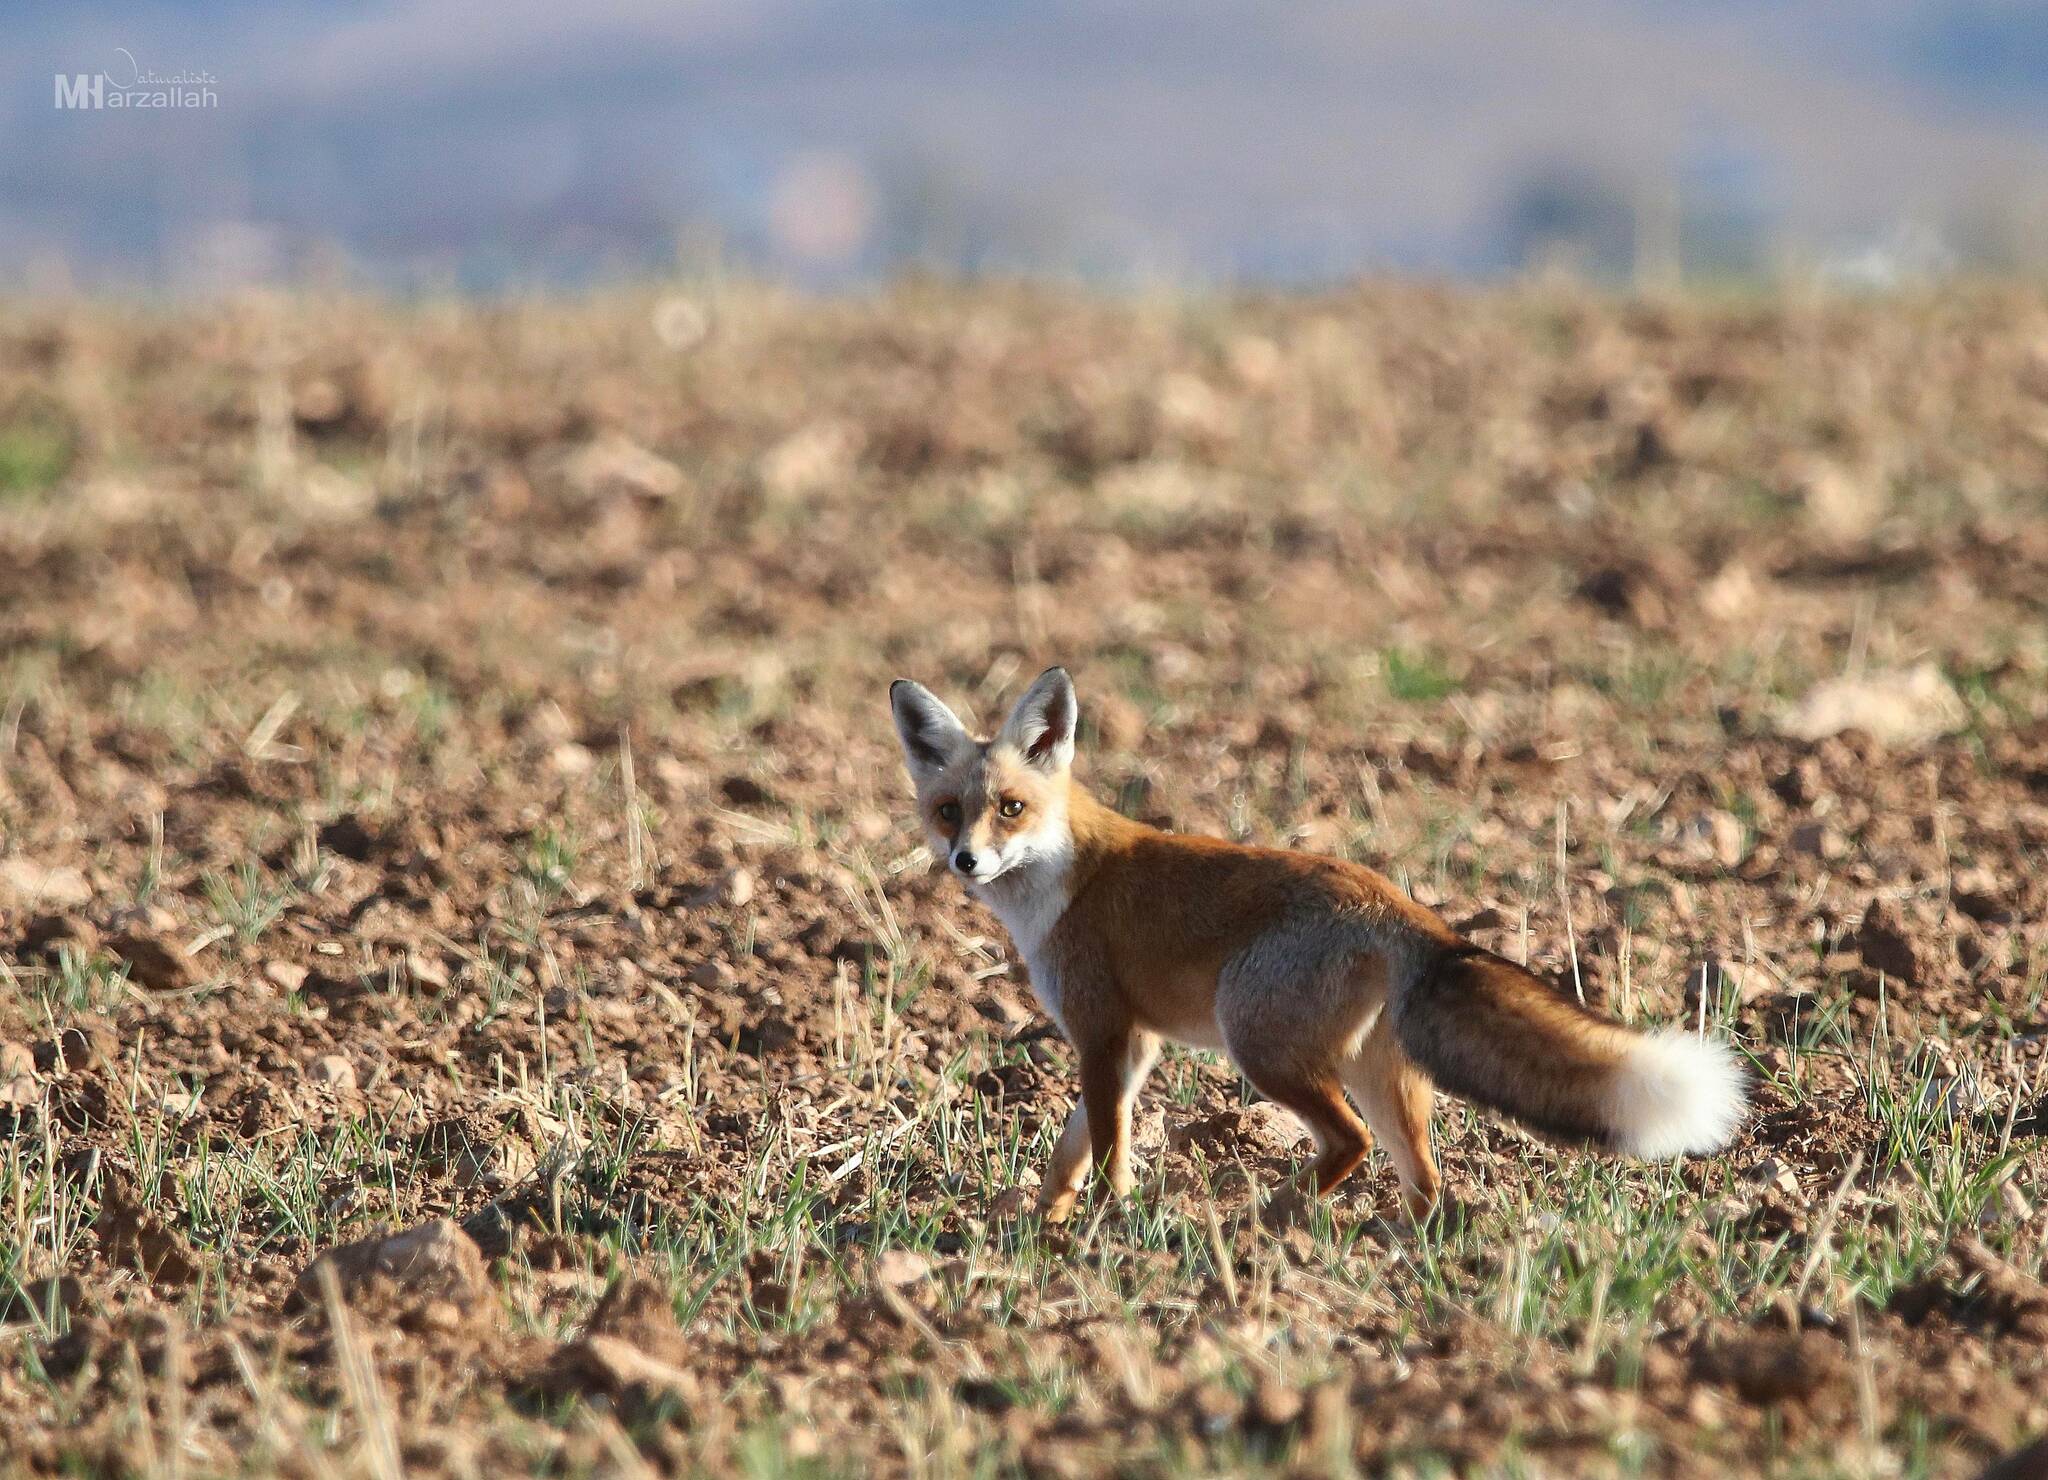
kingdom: Animalia
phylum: Chordata
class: Mammalia
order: Carnivora
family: Canidae
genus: Vulpes
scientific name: Vulpes vulpes
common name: Red fox
